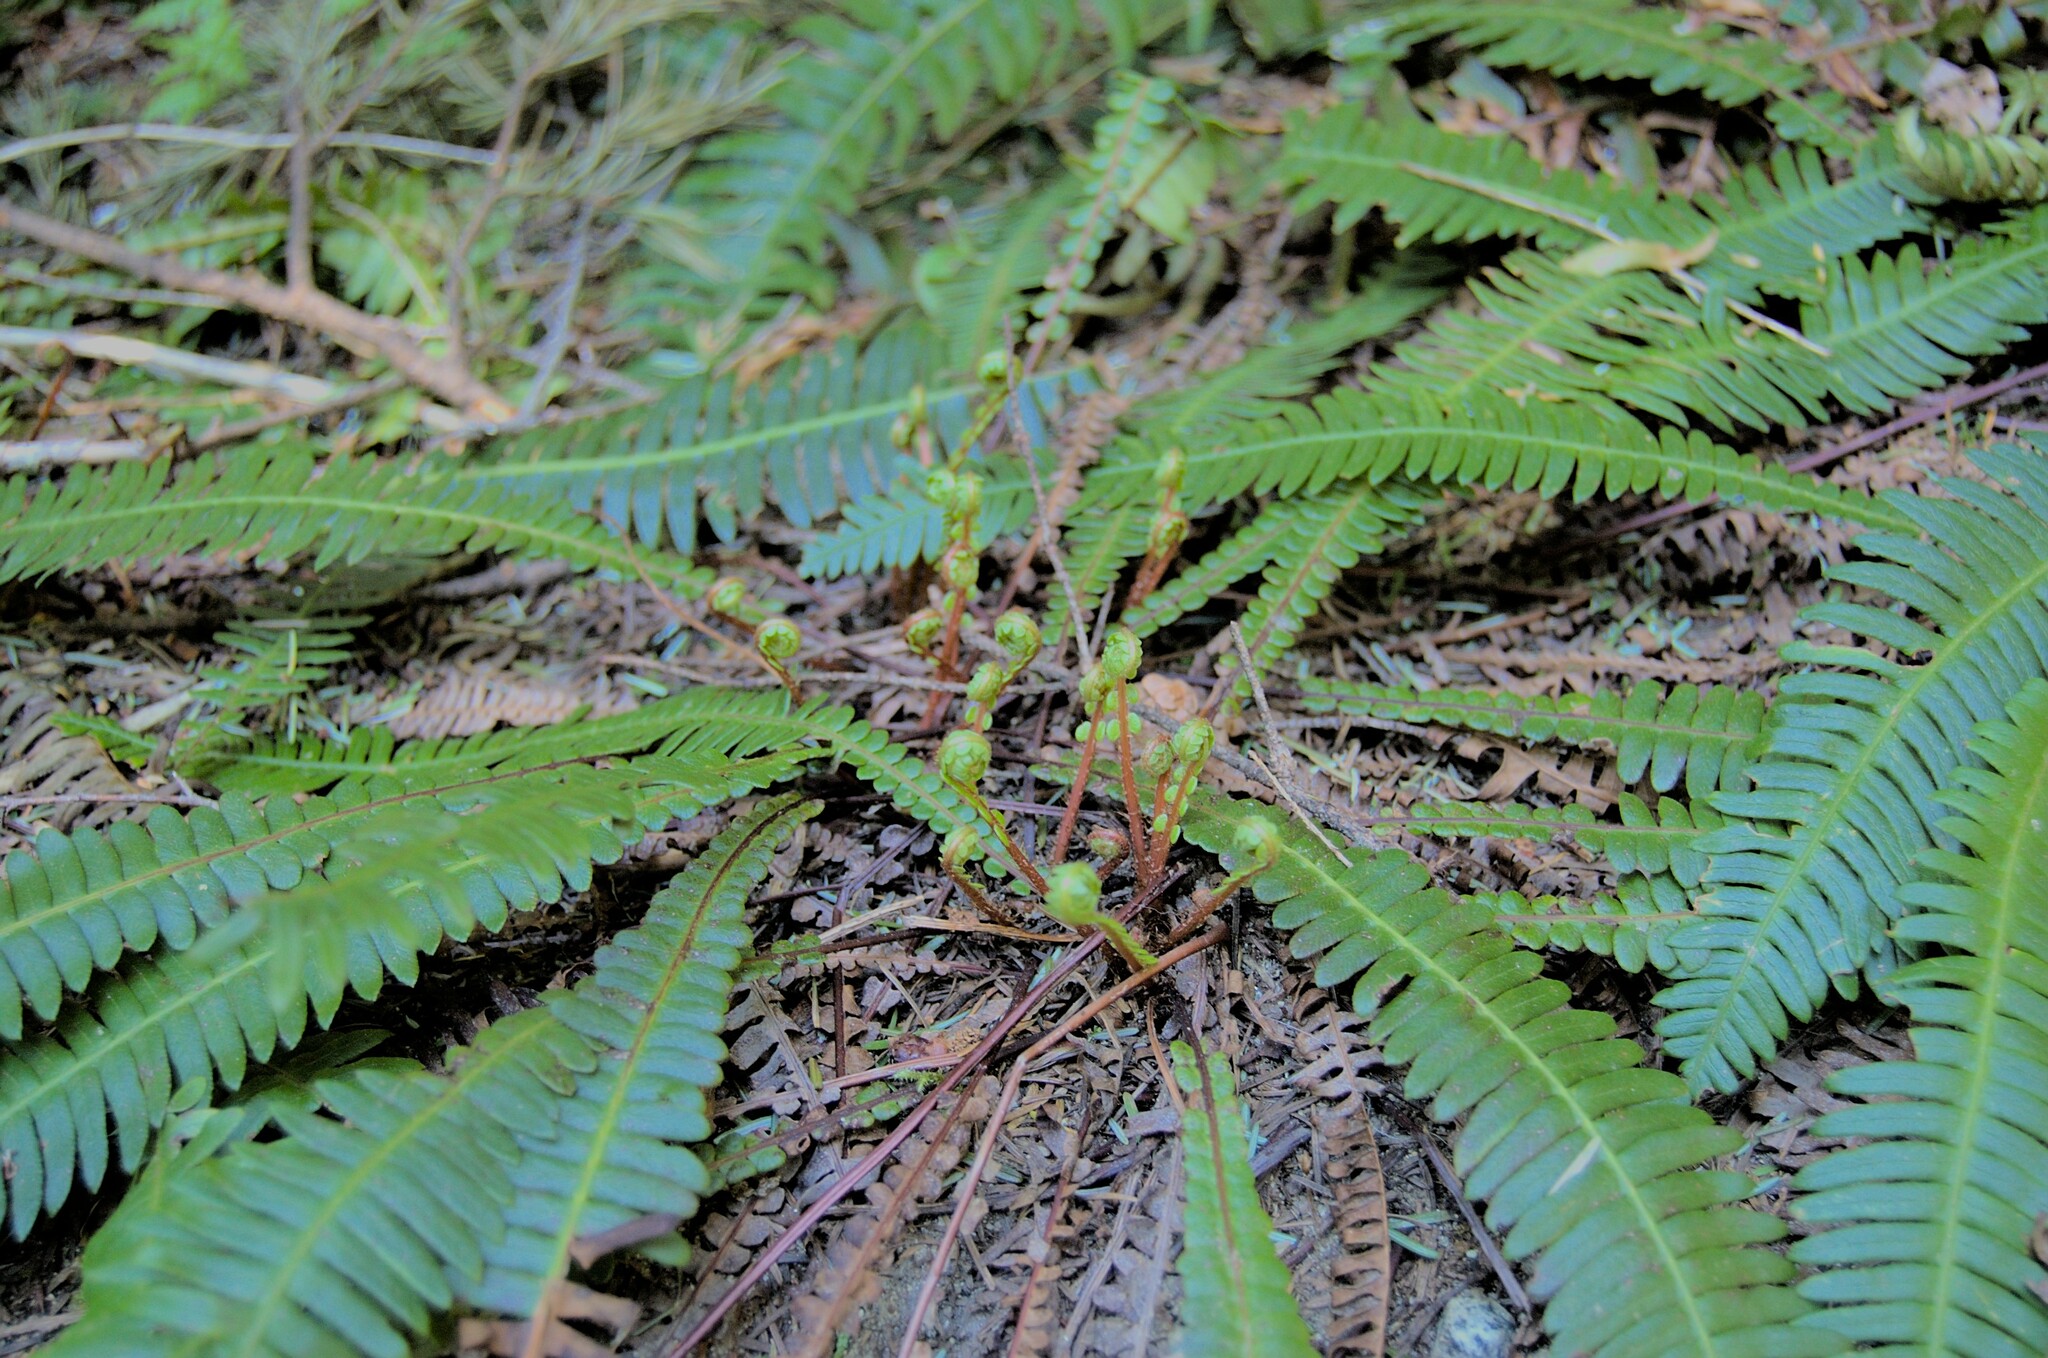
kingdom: Plantae
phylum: Tracheophyta
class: Polypodiopsida
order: Polypodiales
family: Blechnaceae
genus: Struthiopteris
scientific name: Struthiopteris spicant
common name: Deer fern
